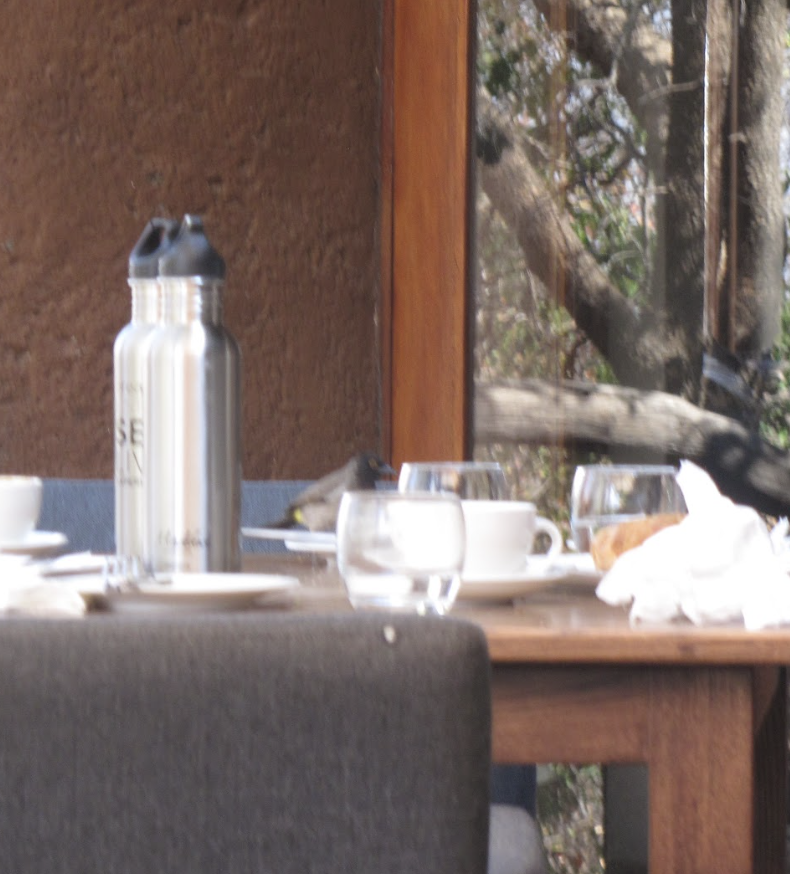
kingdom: Animalia
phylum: Chordata
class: Aves
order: Passeriformes
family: Pycnonotidae
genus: Pycnonotus
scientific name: Pycnonotus nigricans
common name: African red-eyed bulbul
